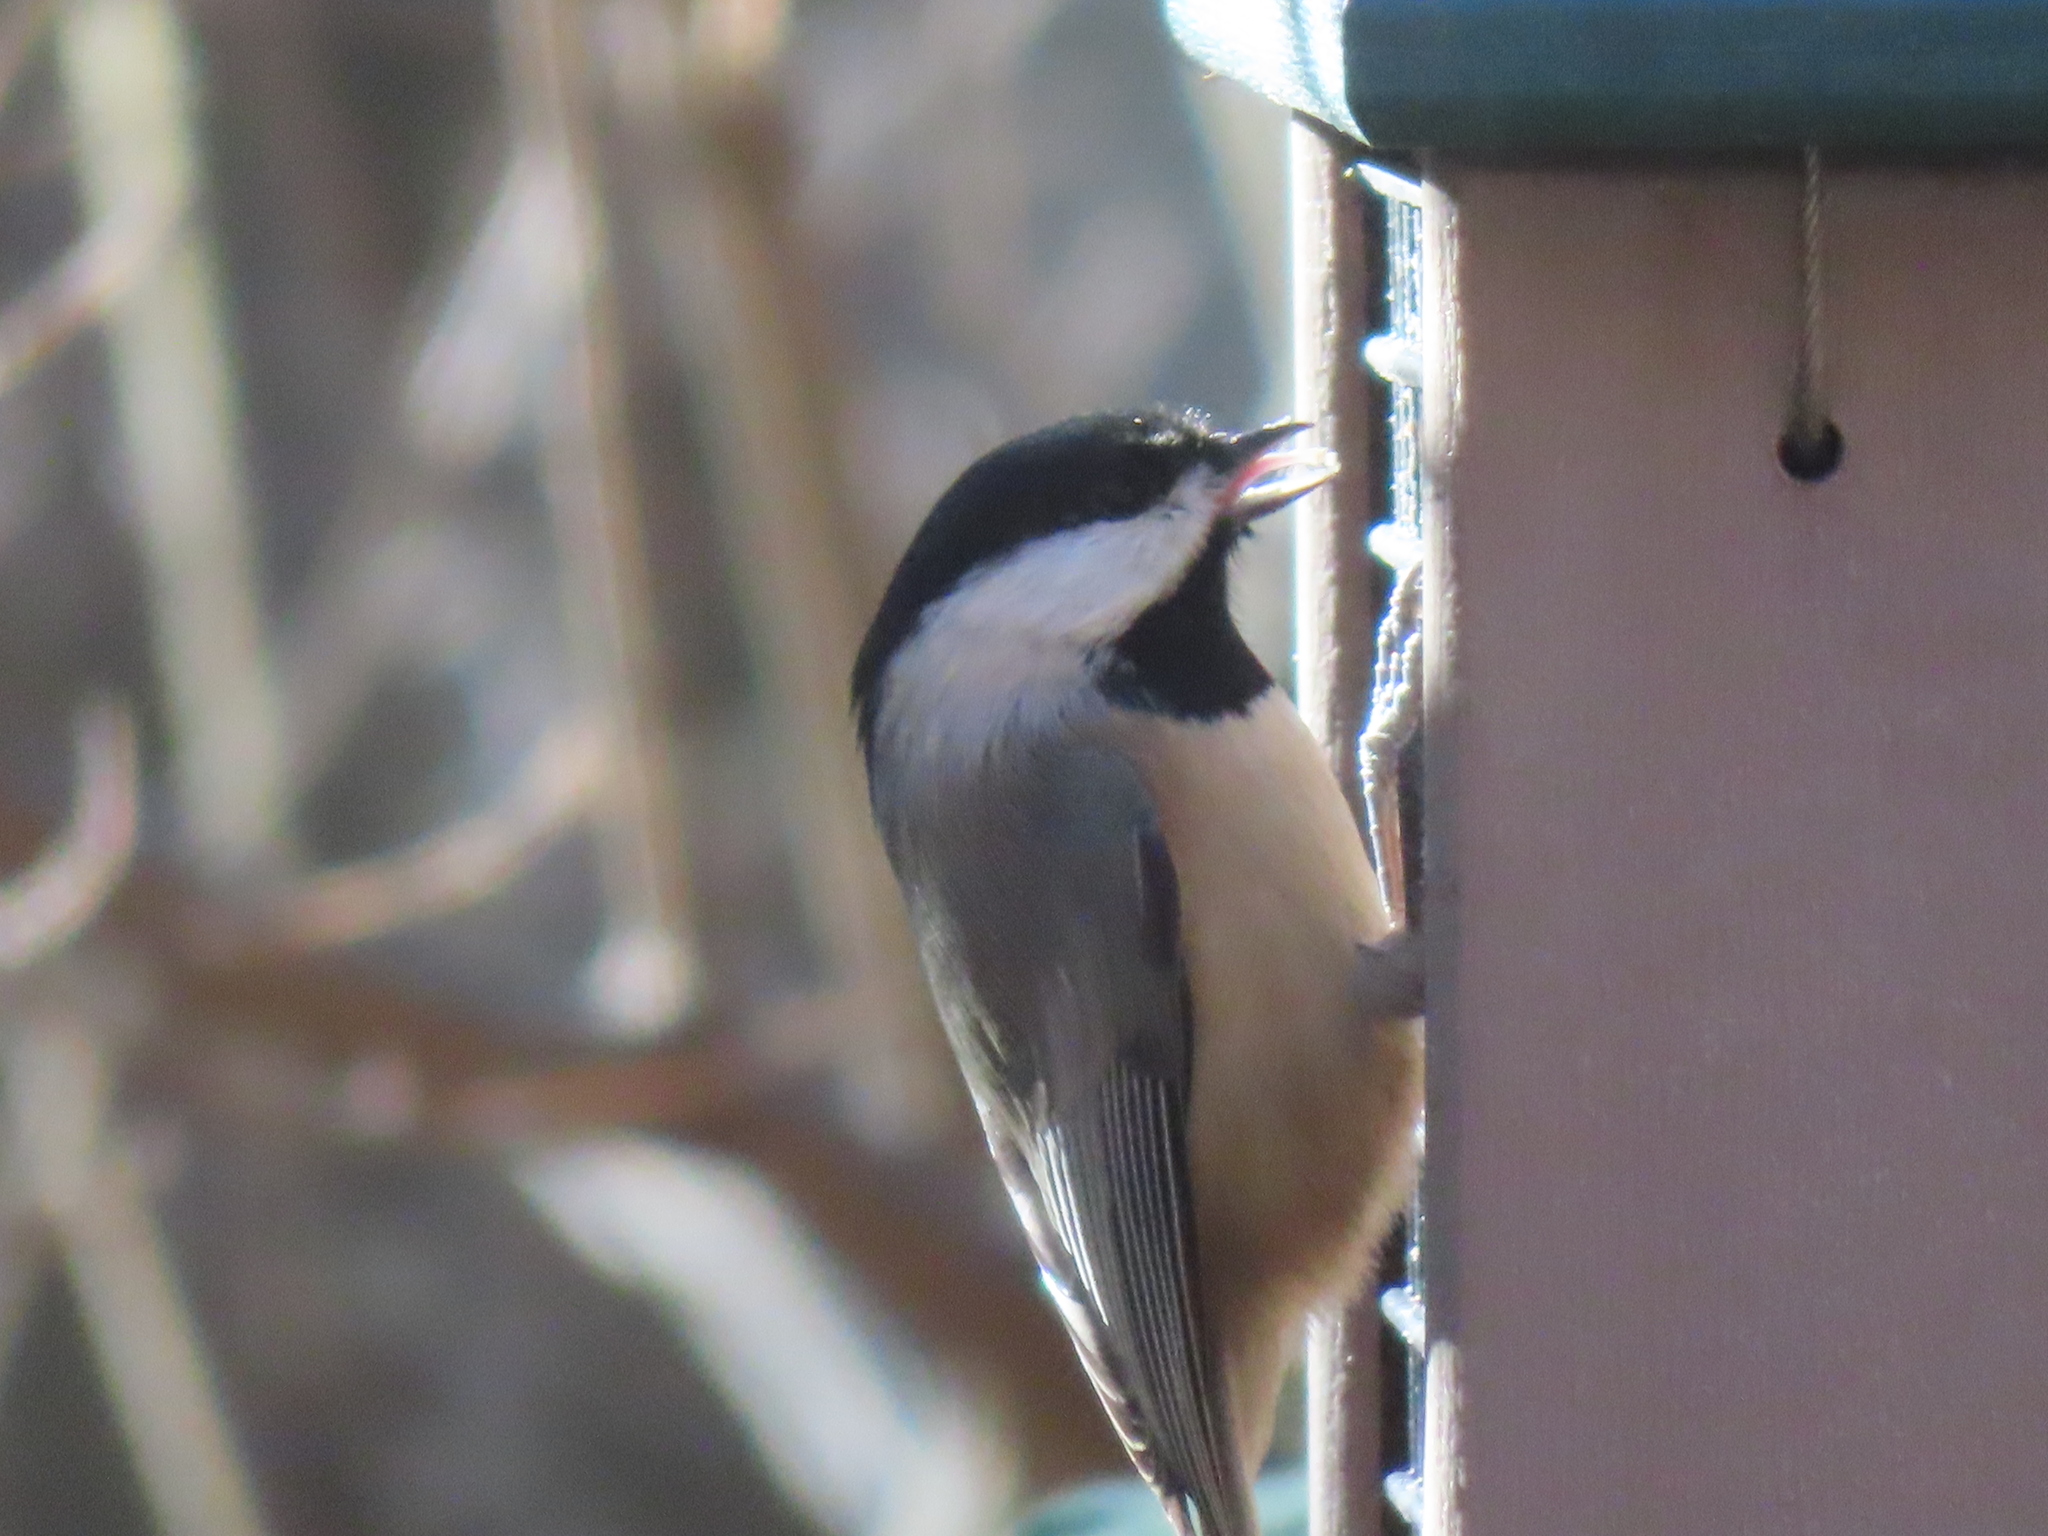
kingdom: Animalia
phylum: Chordata
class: Aves
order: Passeriformes
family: Paridae
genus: Poecile
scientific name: Poecile carolinensis
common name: Carolina chickadee
